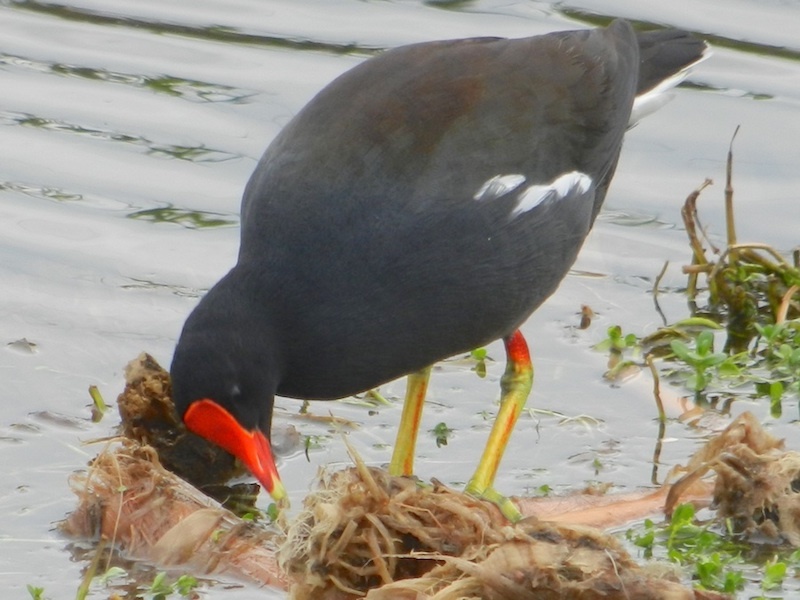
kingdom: Animalia
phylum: Chordata
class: Aves
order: Gruiformes
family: Rallidae
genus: Gallinula
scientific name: Gallinula chloropus
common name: Common moorhen
